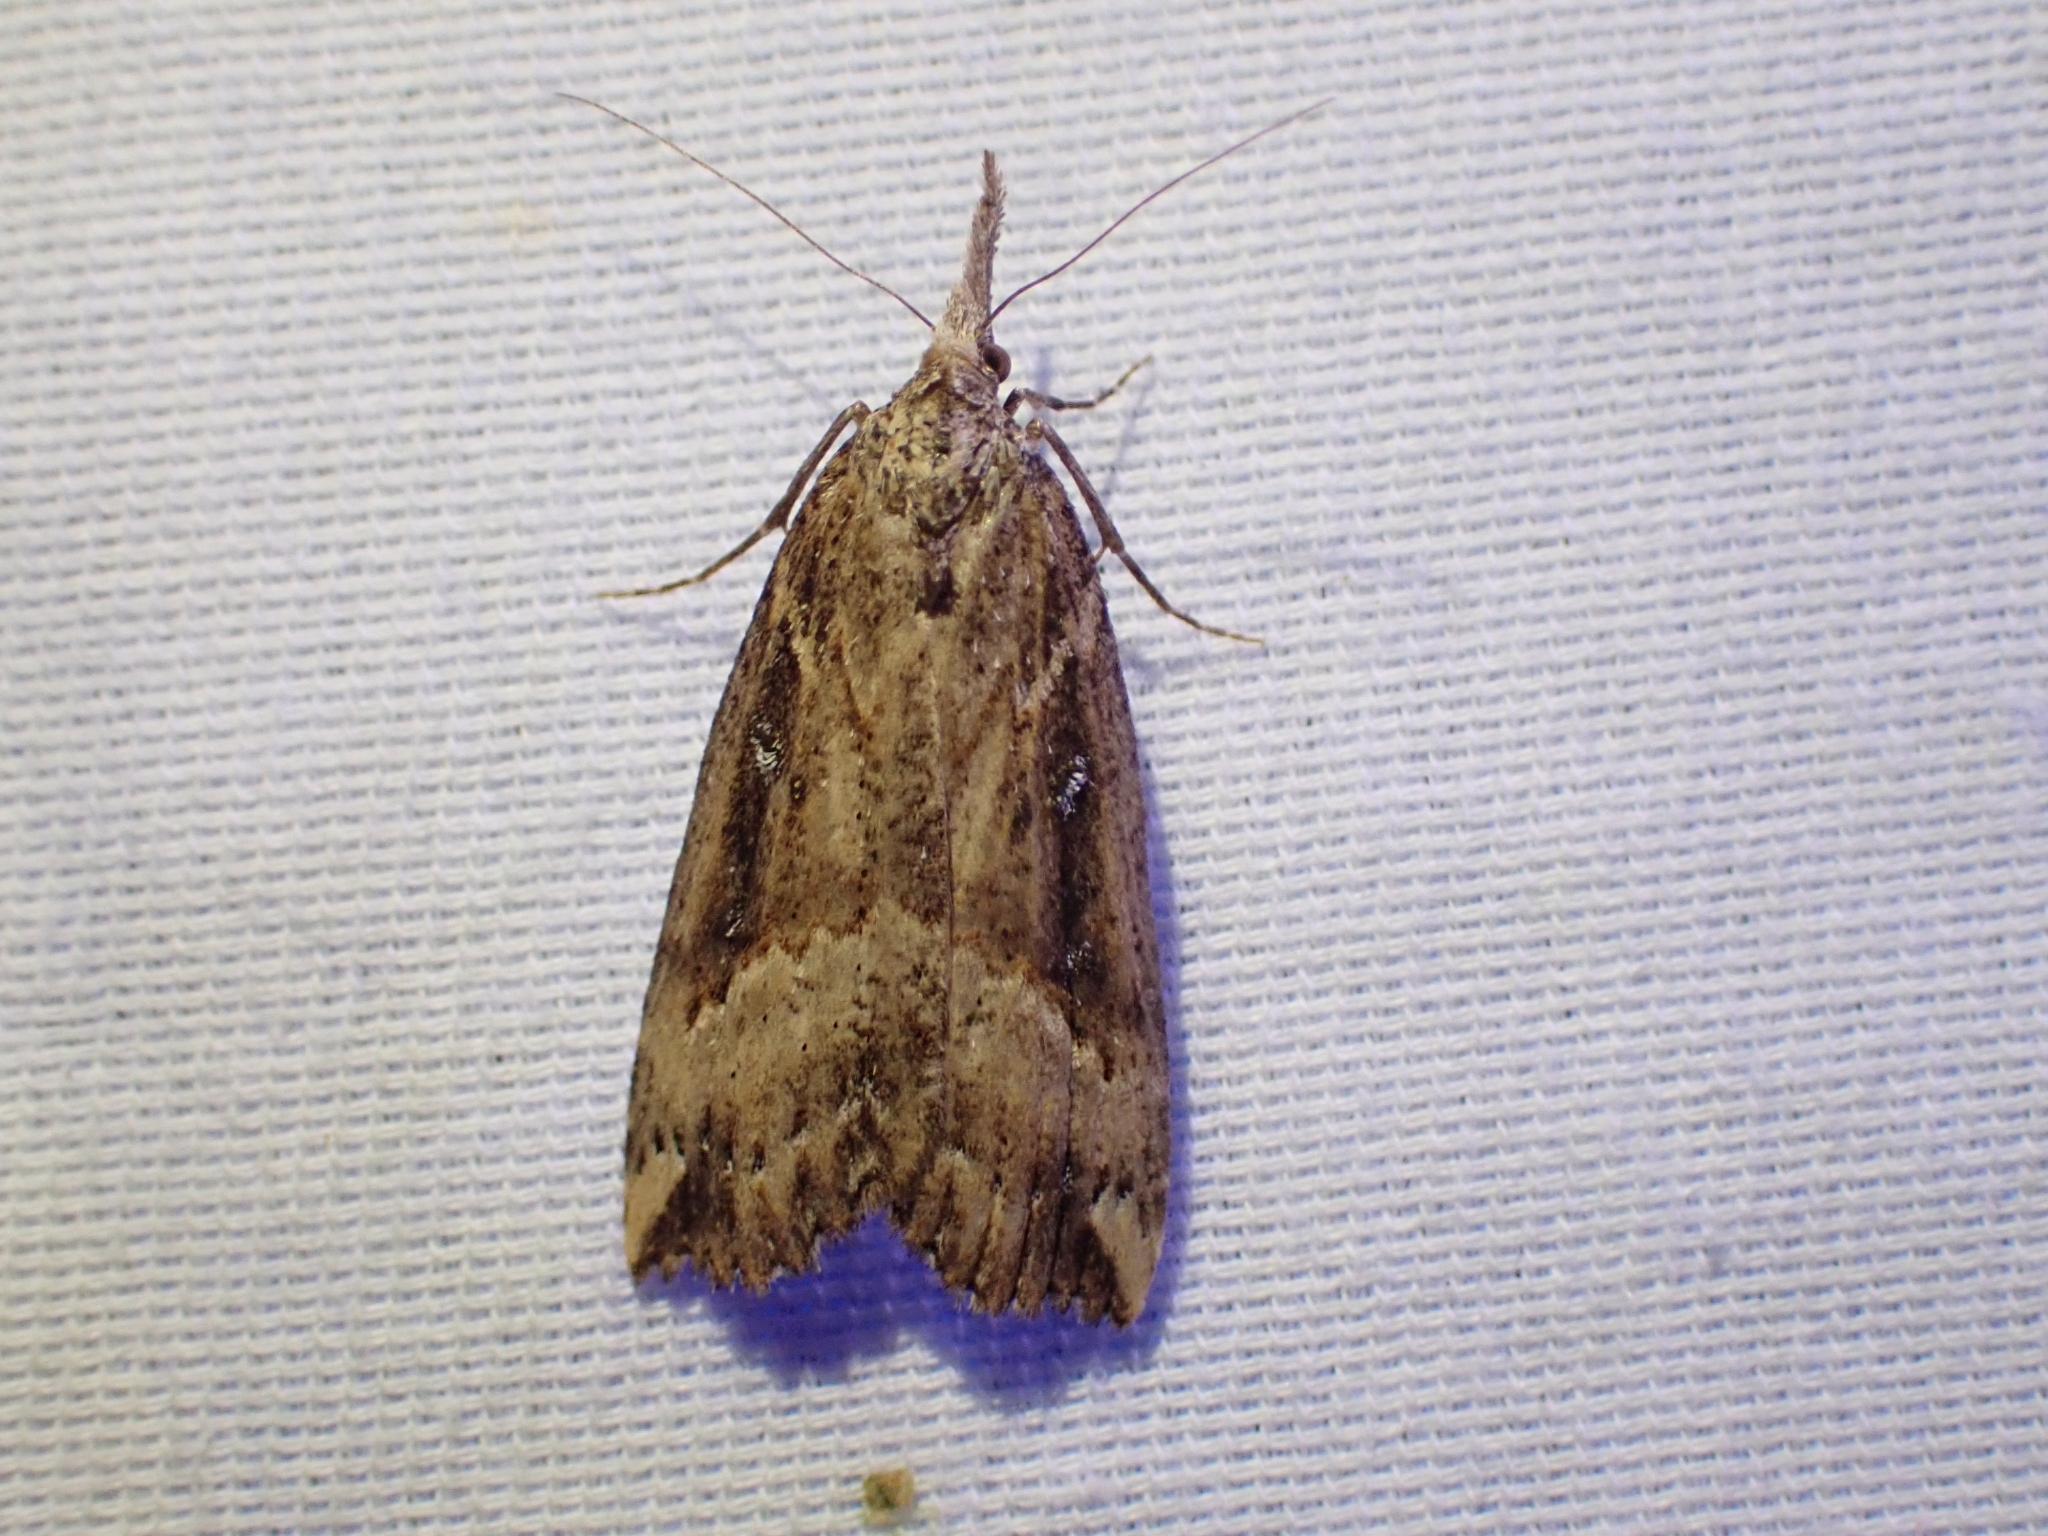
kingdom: Animalia
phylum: Arthropoda
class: Insecta
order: Lepidoptera
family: Erebidae
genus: Hypena
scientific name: Hypena californica
